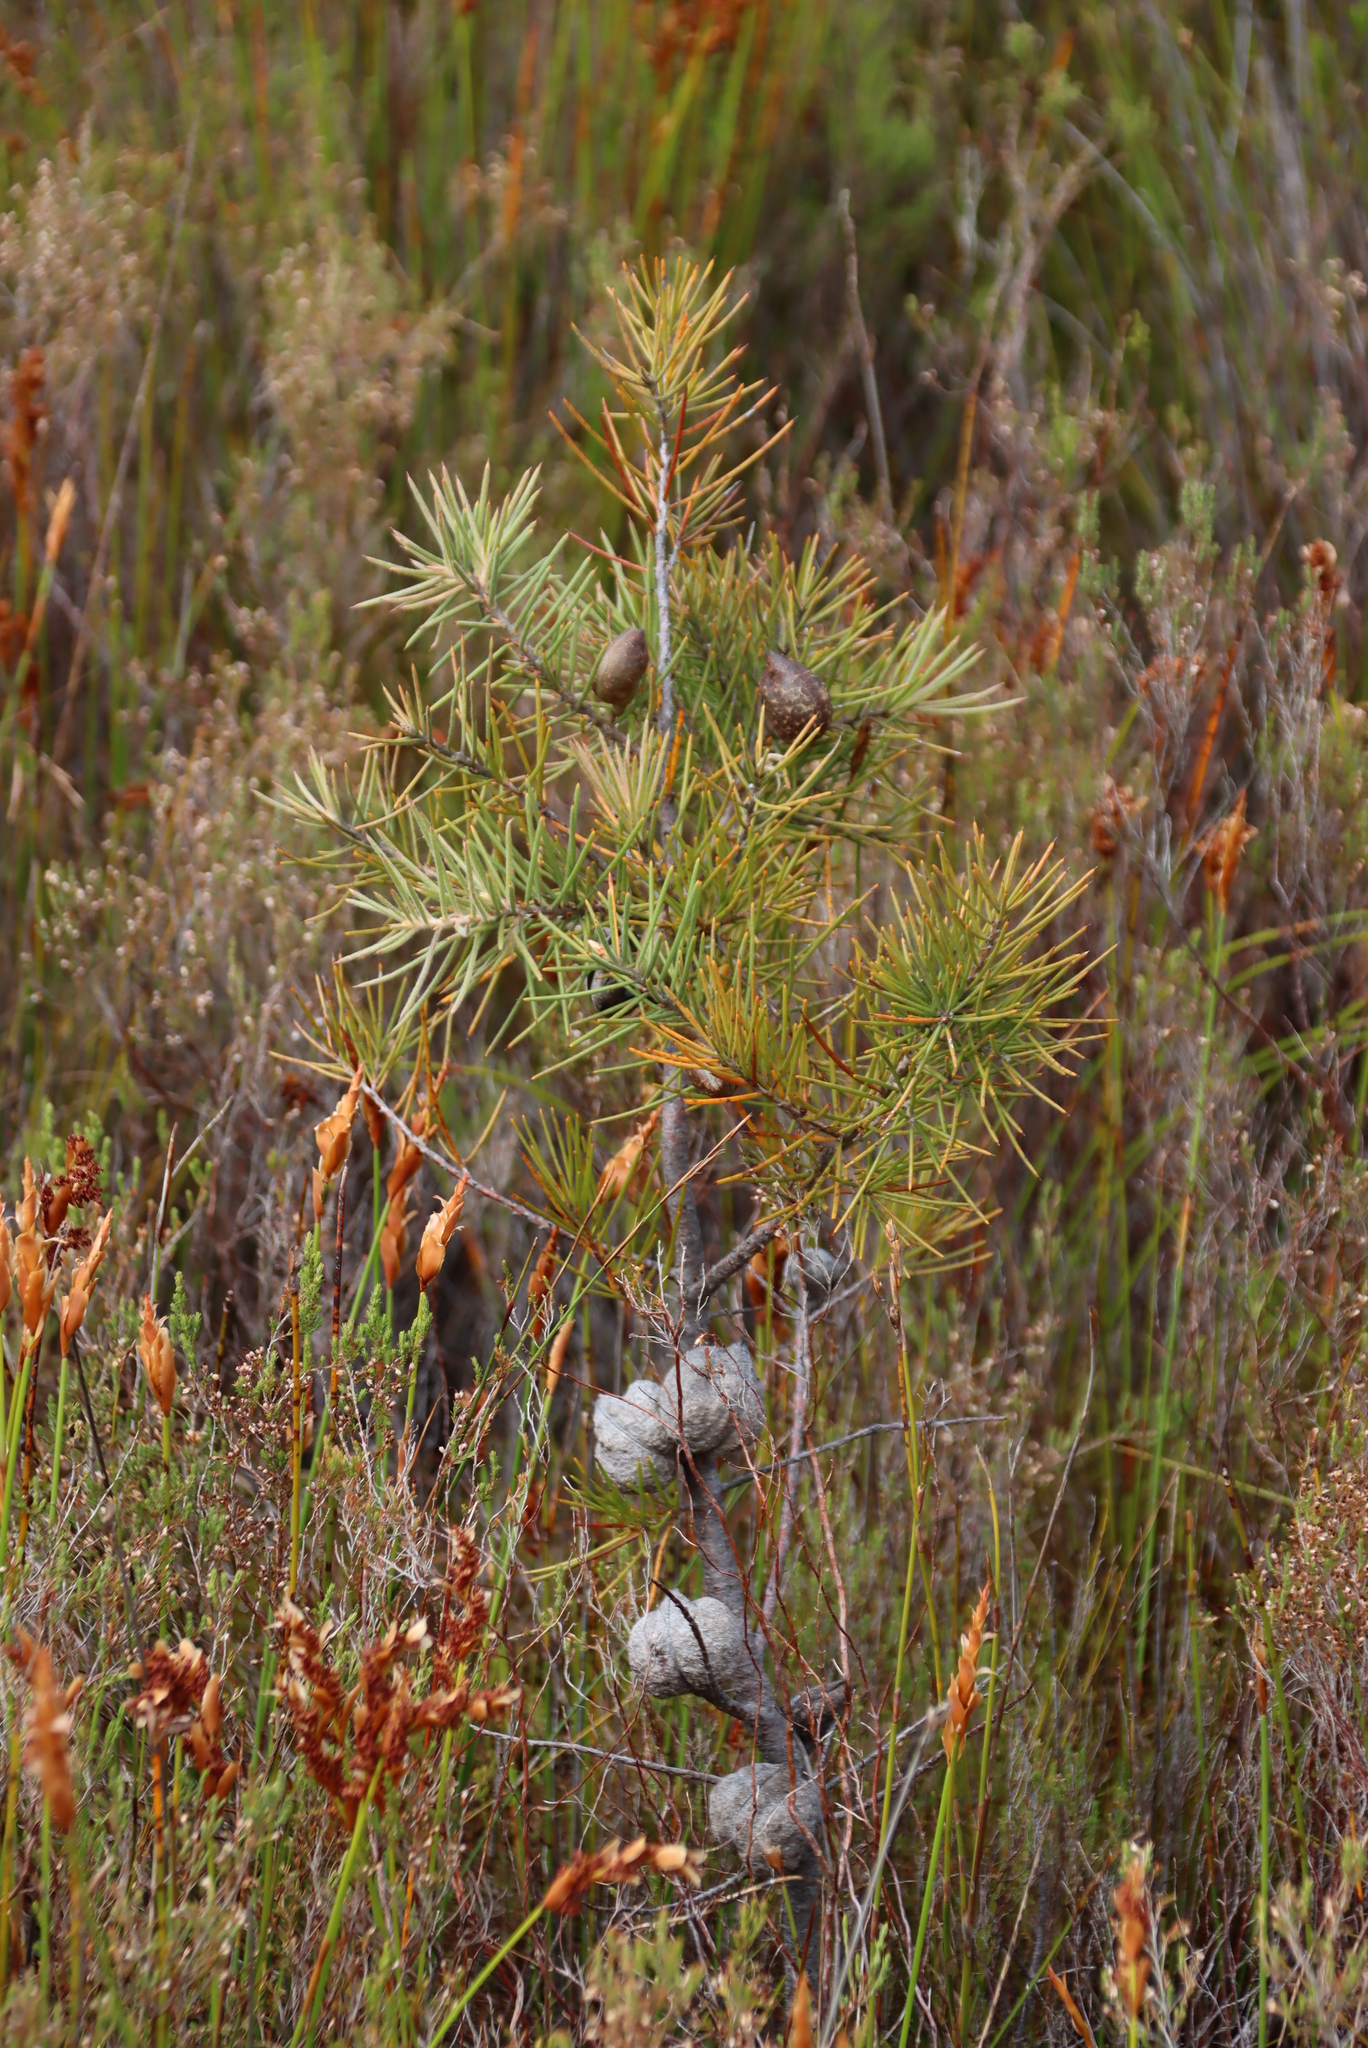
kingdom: Plantae
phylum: Tracheophyta
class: Magnoliopsida
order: Proteales
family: Proteaceae
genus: Hakea
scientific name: Hakea gibbosa
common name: Rock hakea
